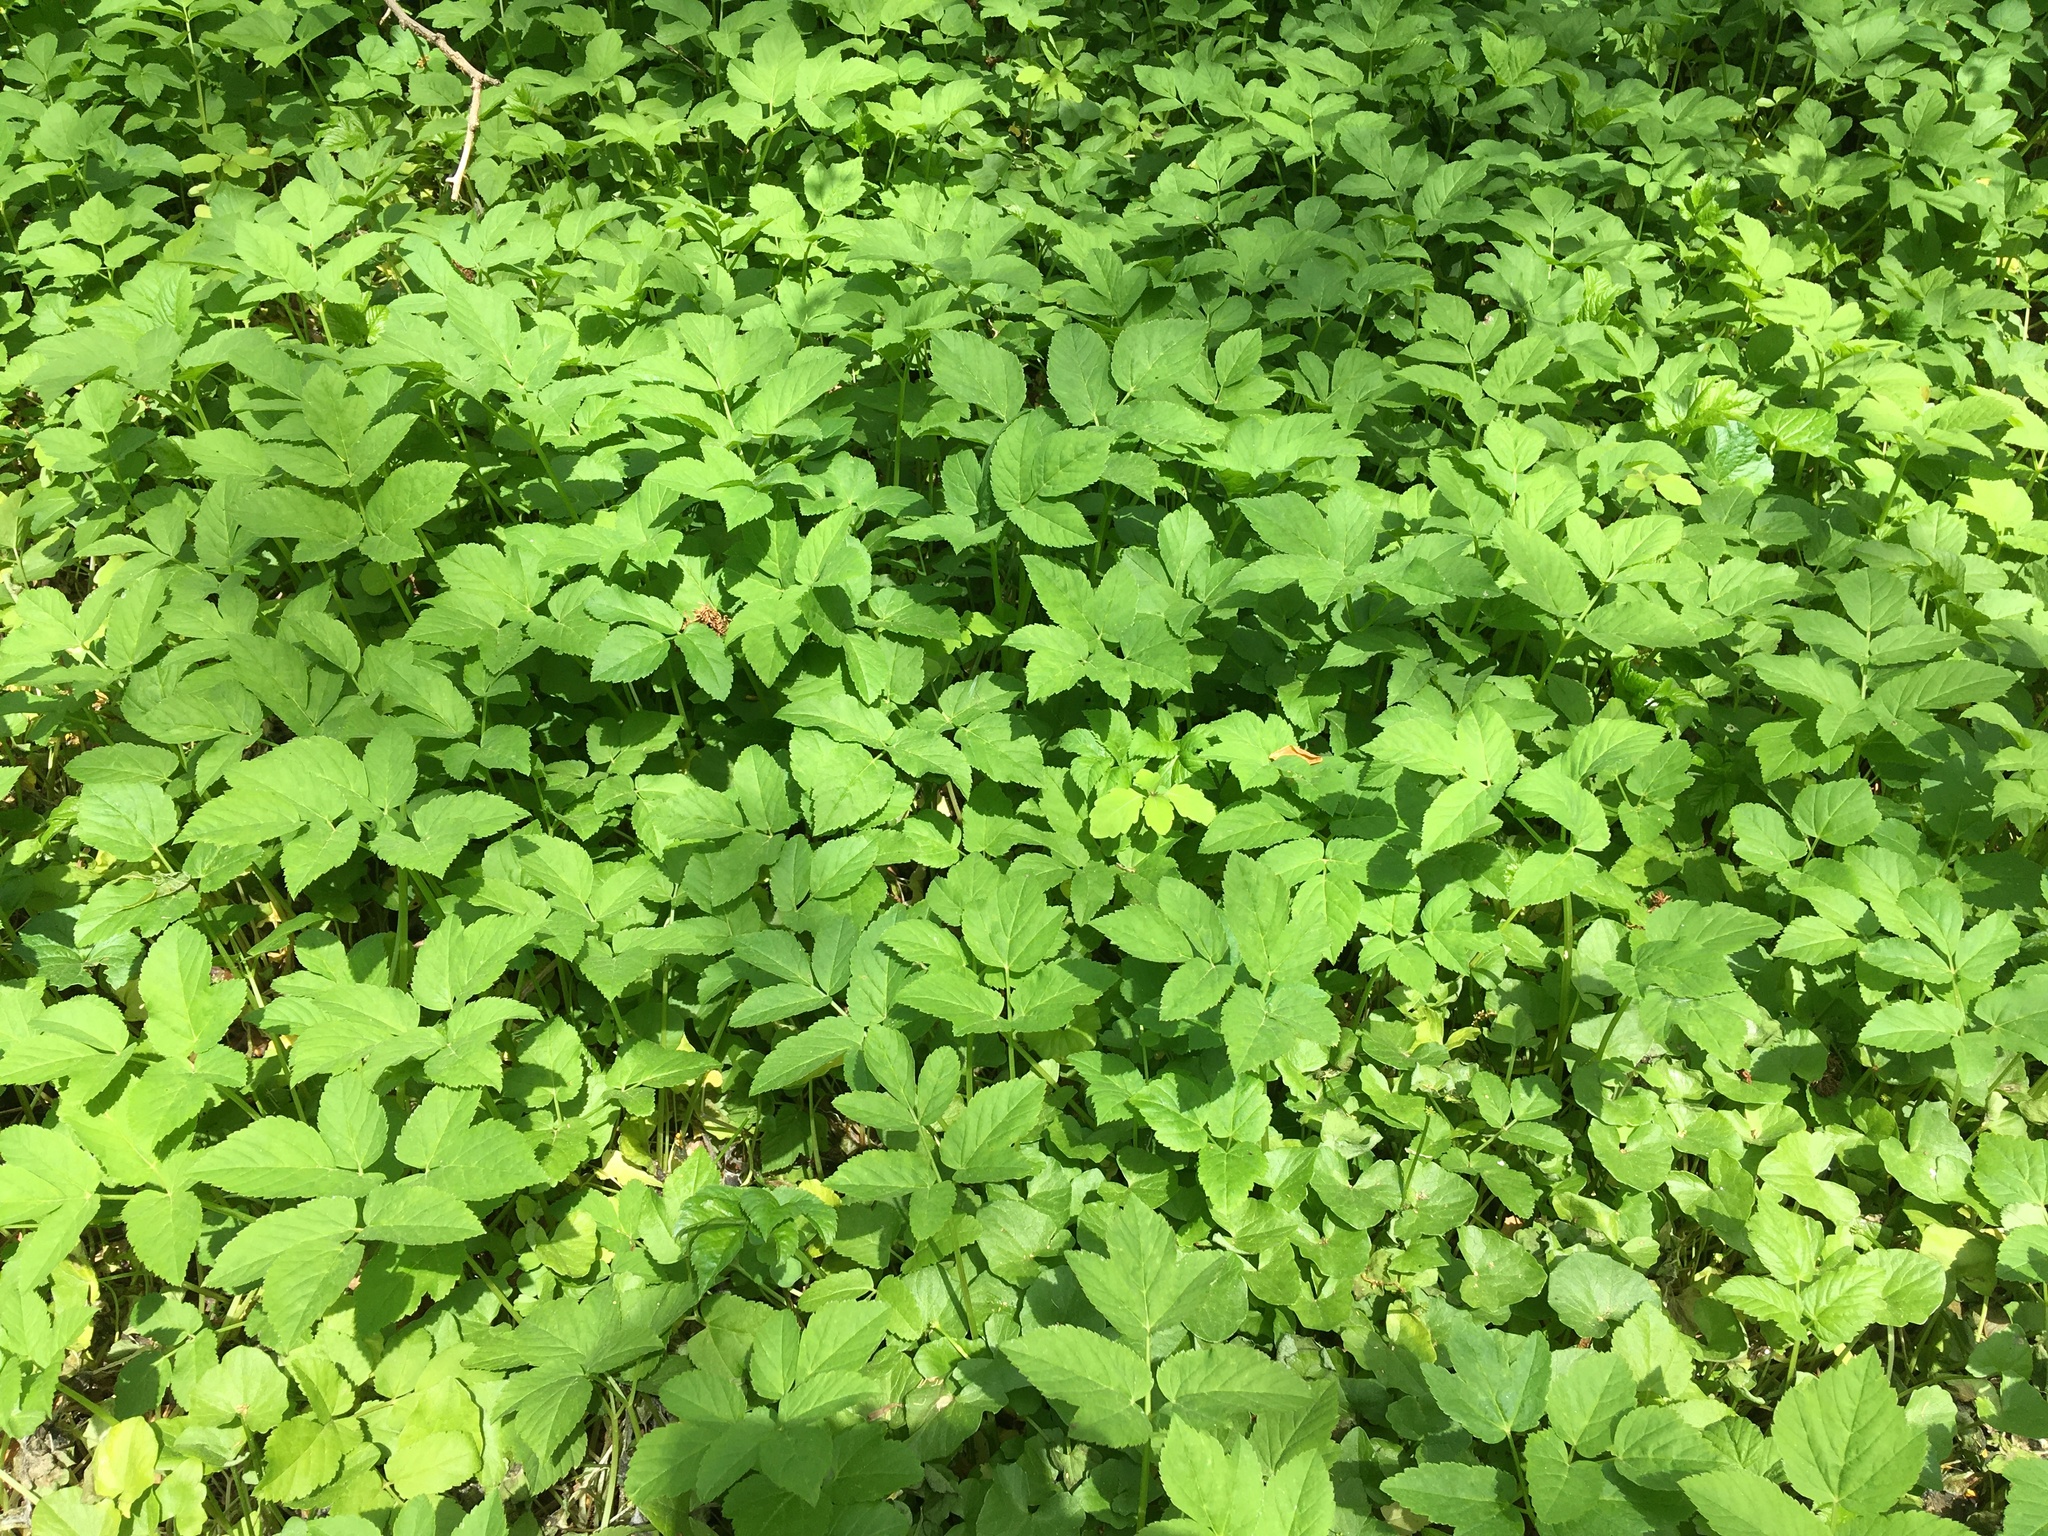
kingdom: Plantae
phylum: Tracheophyta
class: Magnoliopsida
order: Apiales
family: Apiaceae
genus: Aegopodium
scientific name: Aegopodium podagraria
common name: Ground-elder
